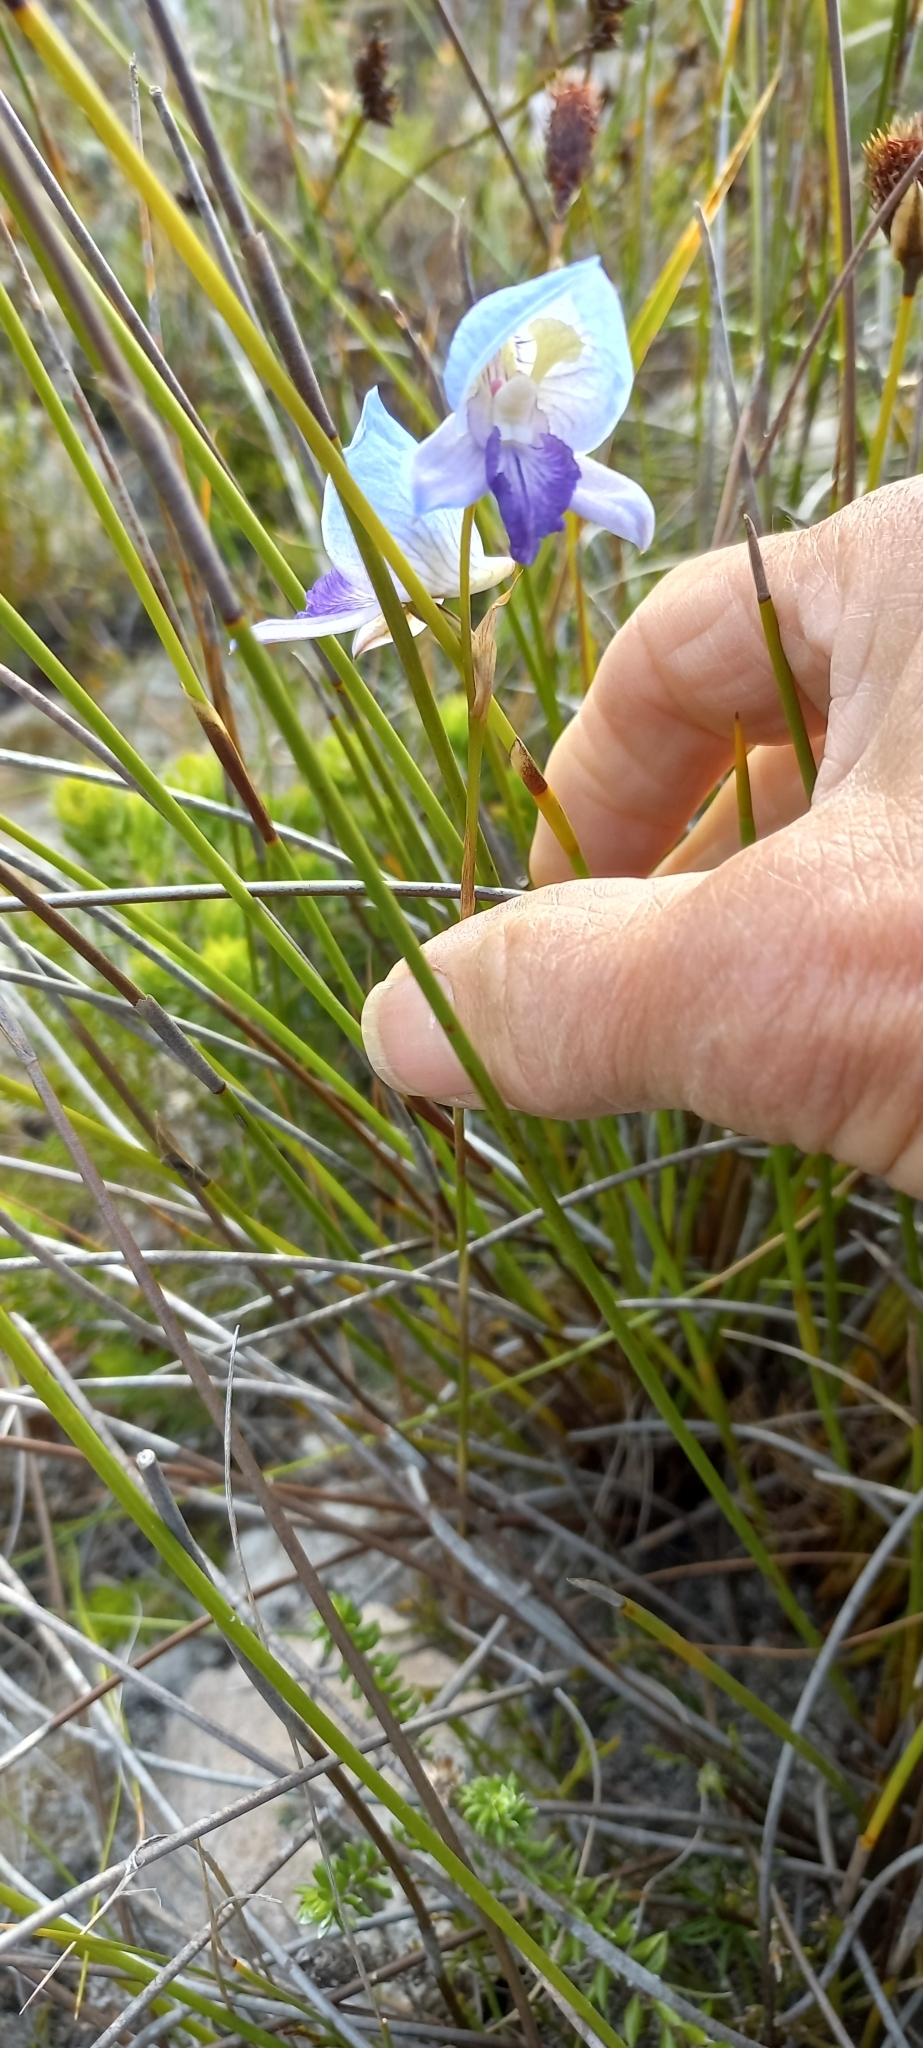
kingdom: Plantae
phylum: Tracheophyta
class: Liliopsida
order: Asparagales
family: Orchidaceae
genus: Disa
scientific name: Disa purpurascens
